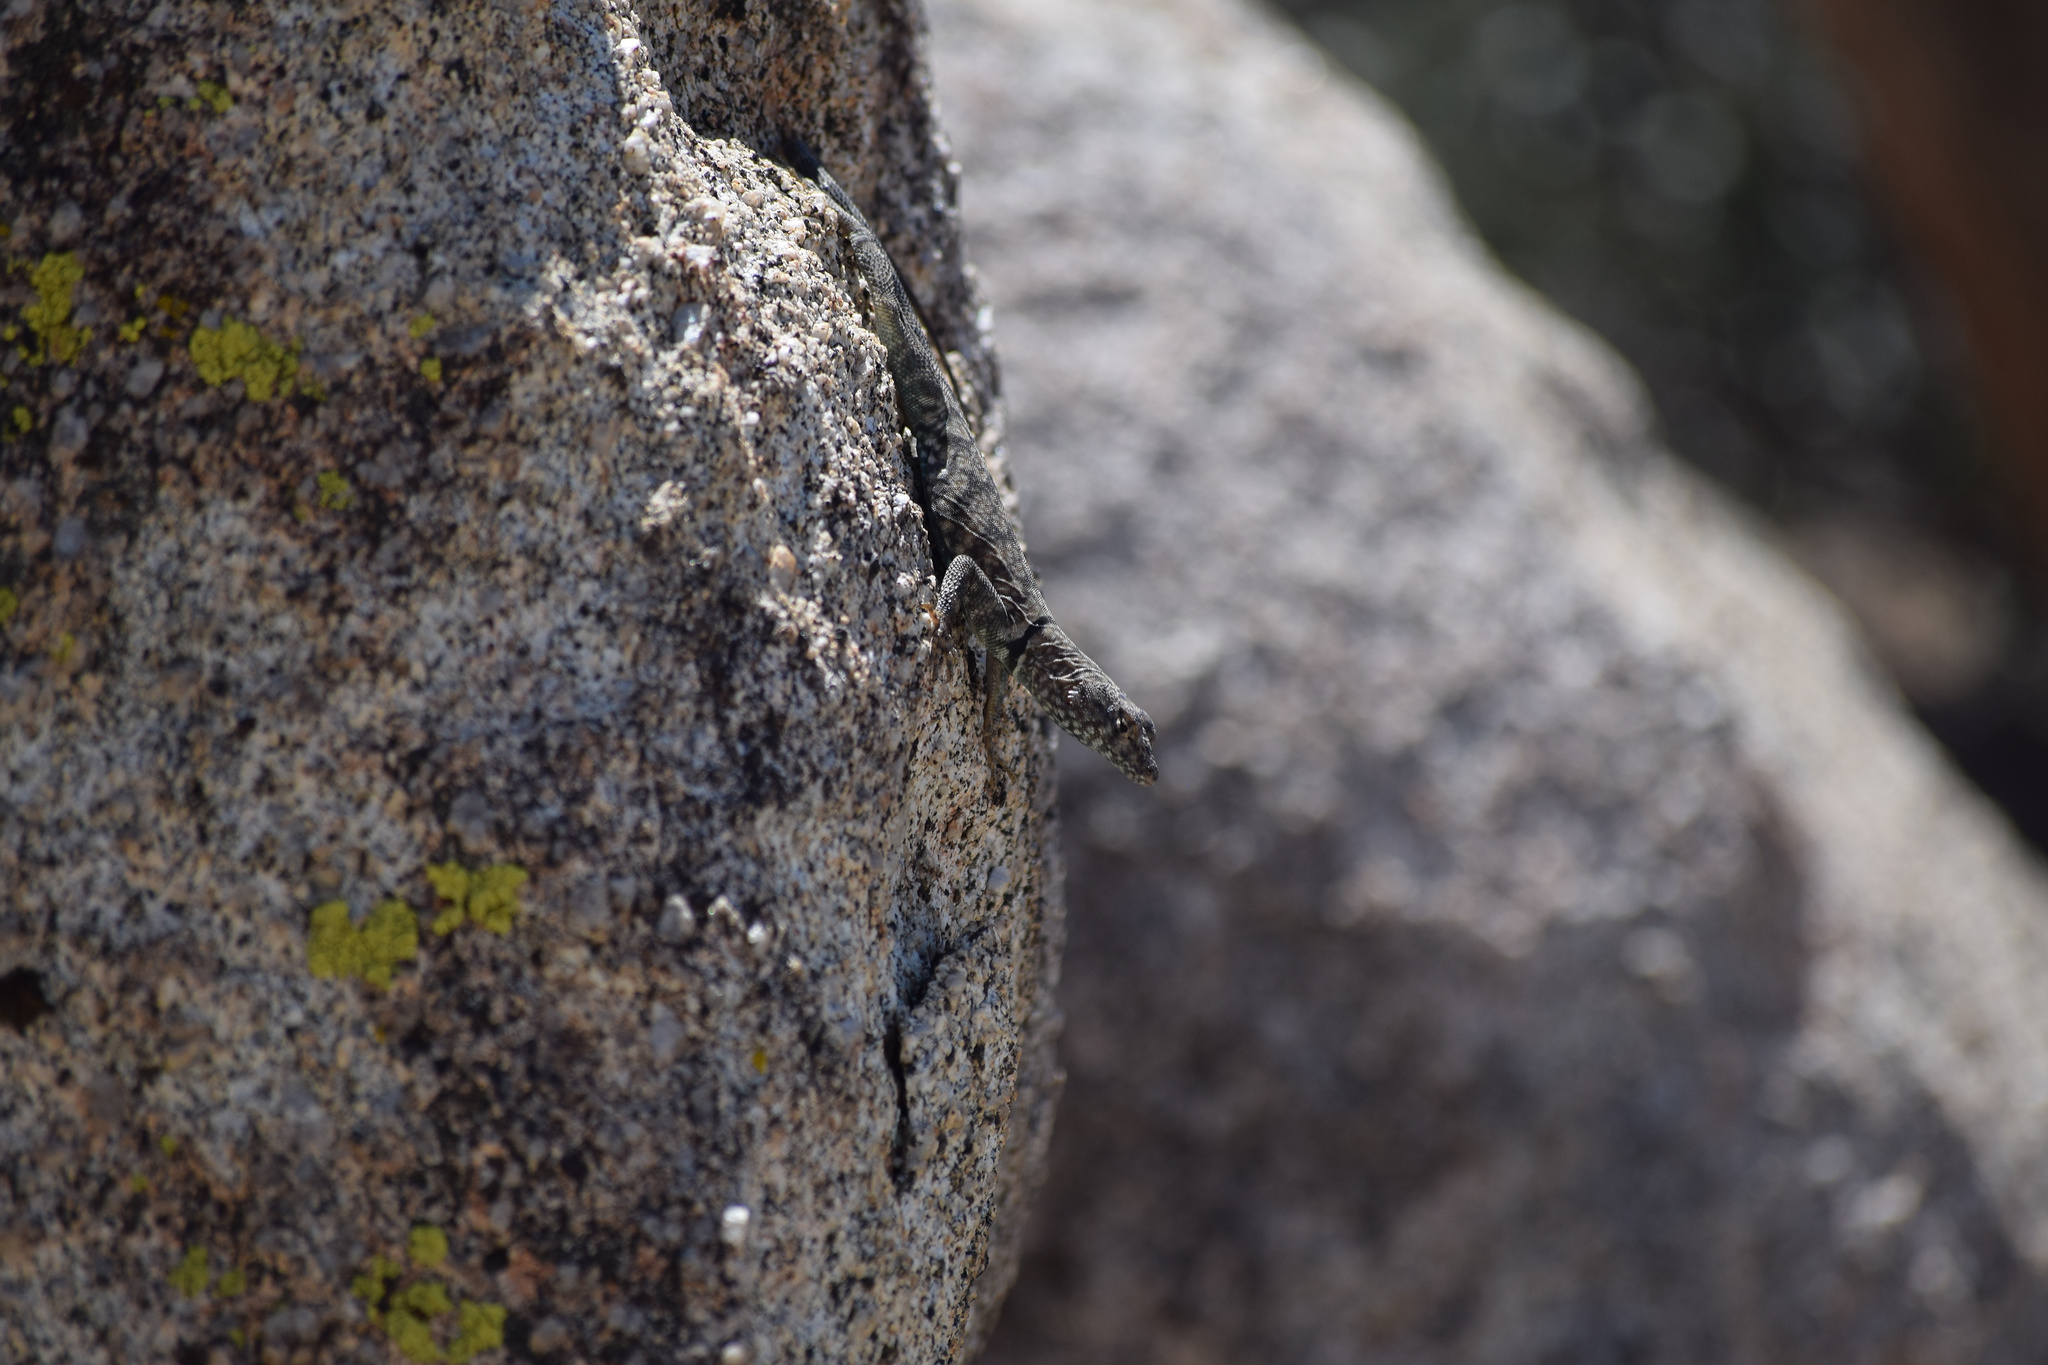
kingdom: Animalia
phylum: Chordata
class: Squamata
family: Phrynosomatidae
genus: Petrosaurus
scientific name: Petrosaurus mearnsi
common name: Banded rock lizard
